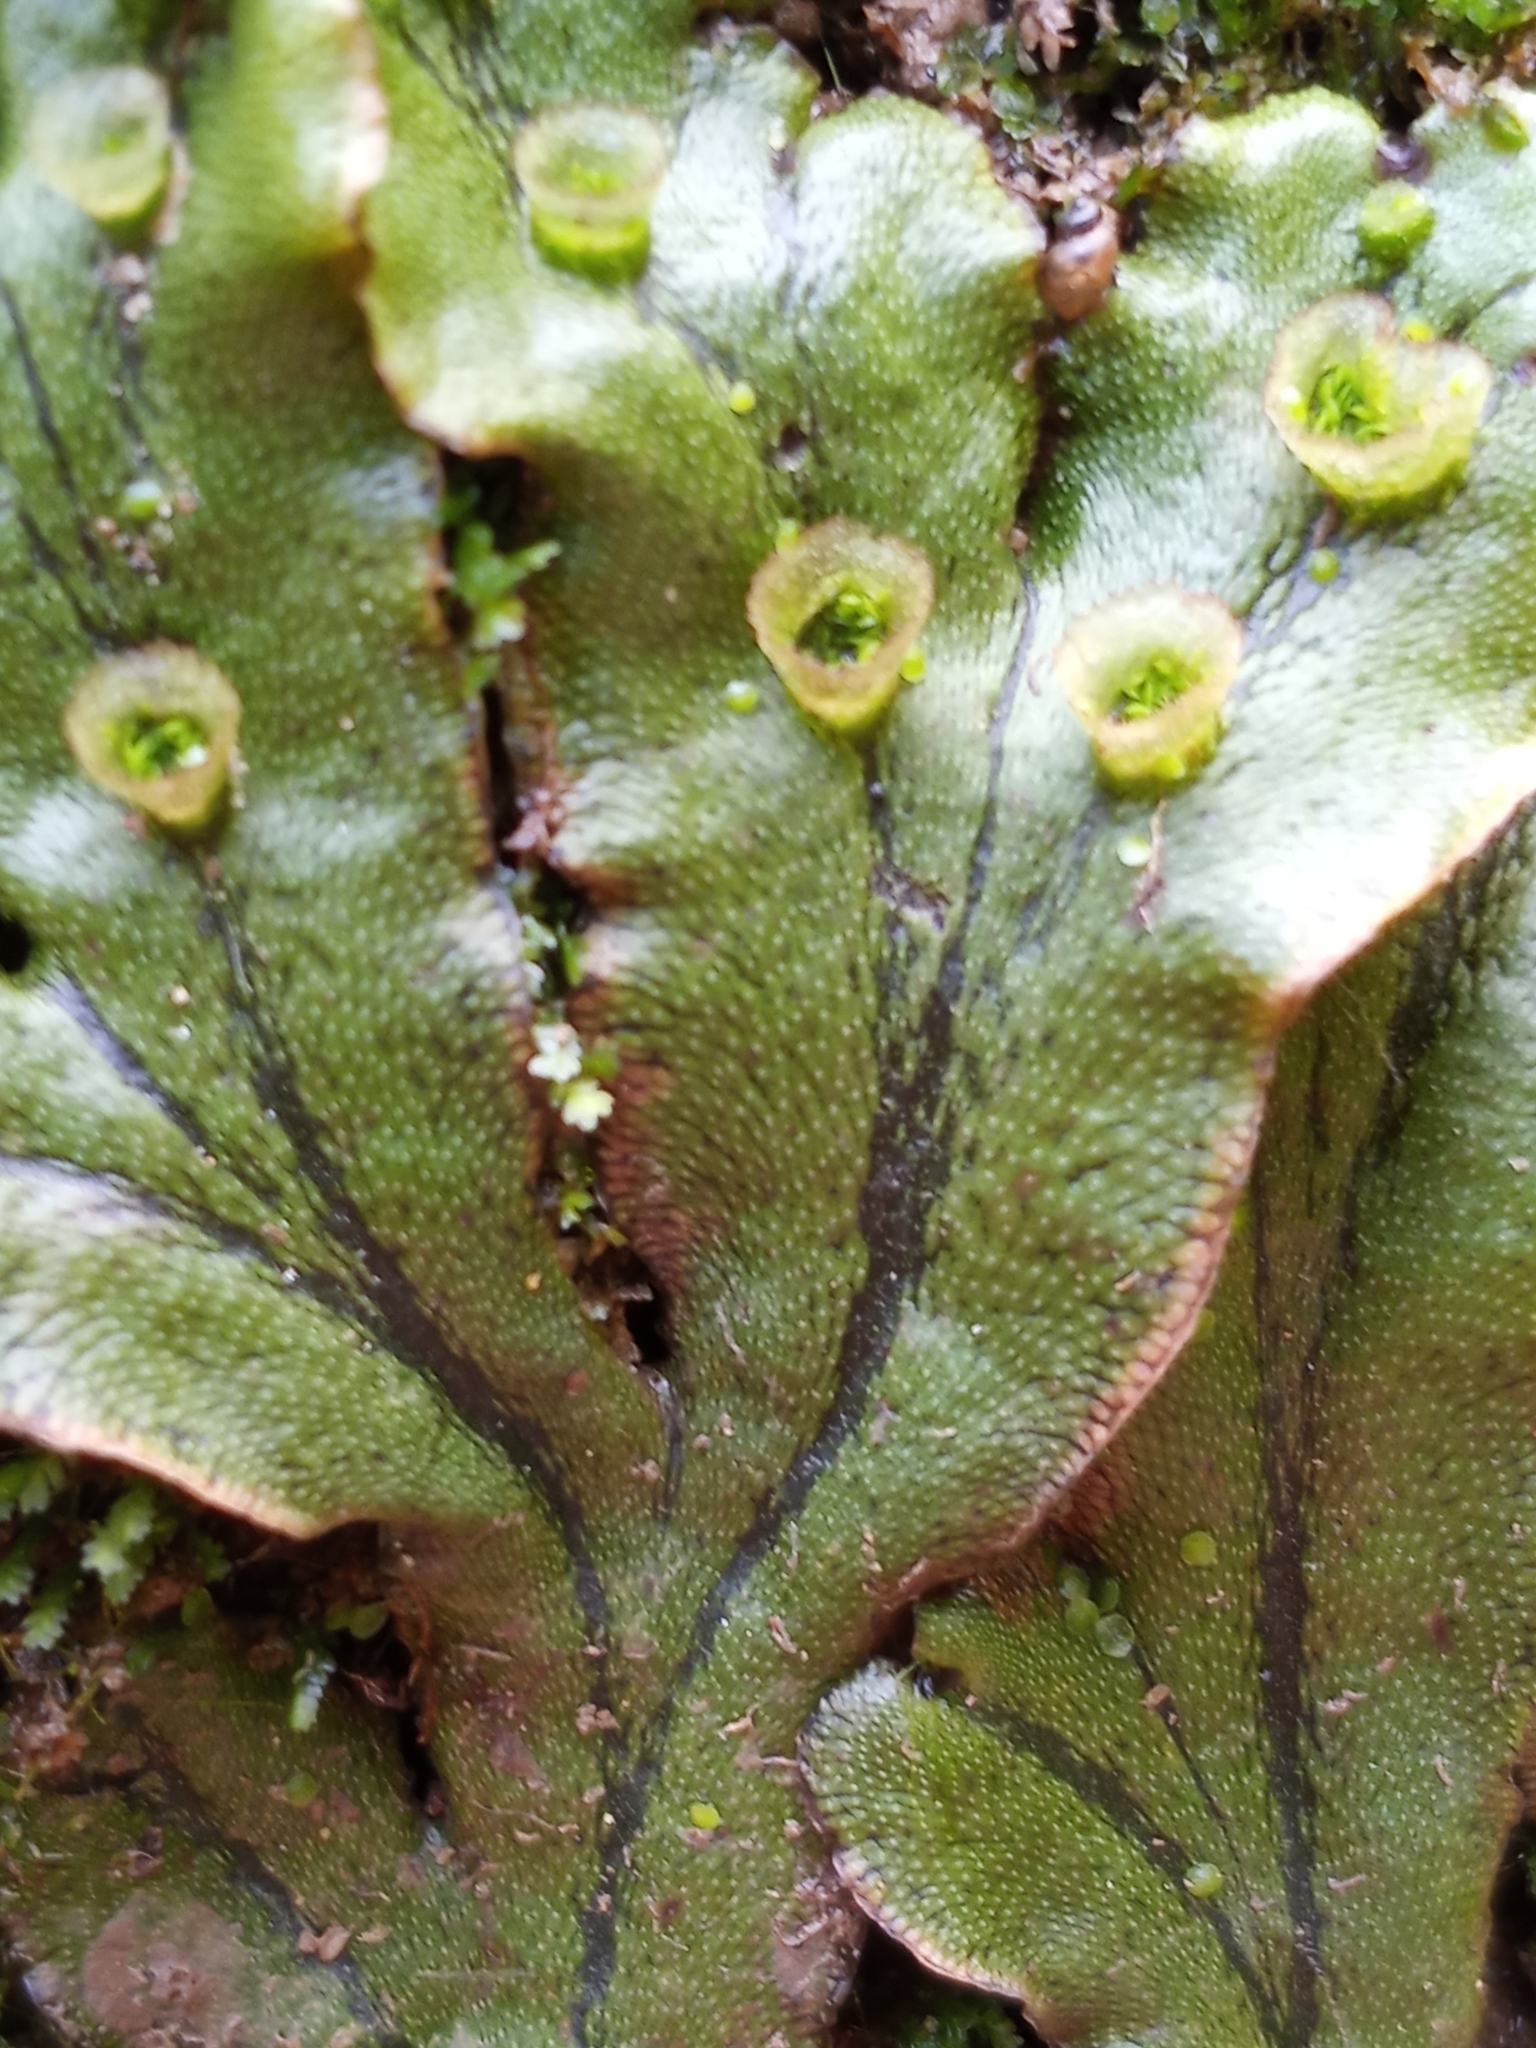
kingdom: Plantae
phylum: Marchantiophyta
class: Marchantiopsida
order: Marchantiales
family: Marchantiaceae
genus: Marchantia
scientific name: Marchantia polymorpha
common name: Common liverwort
